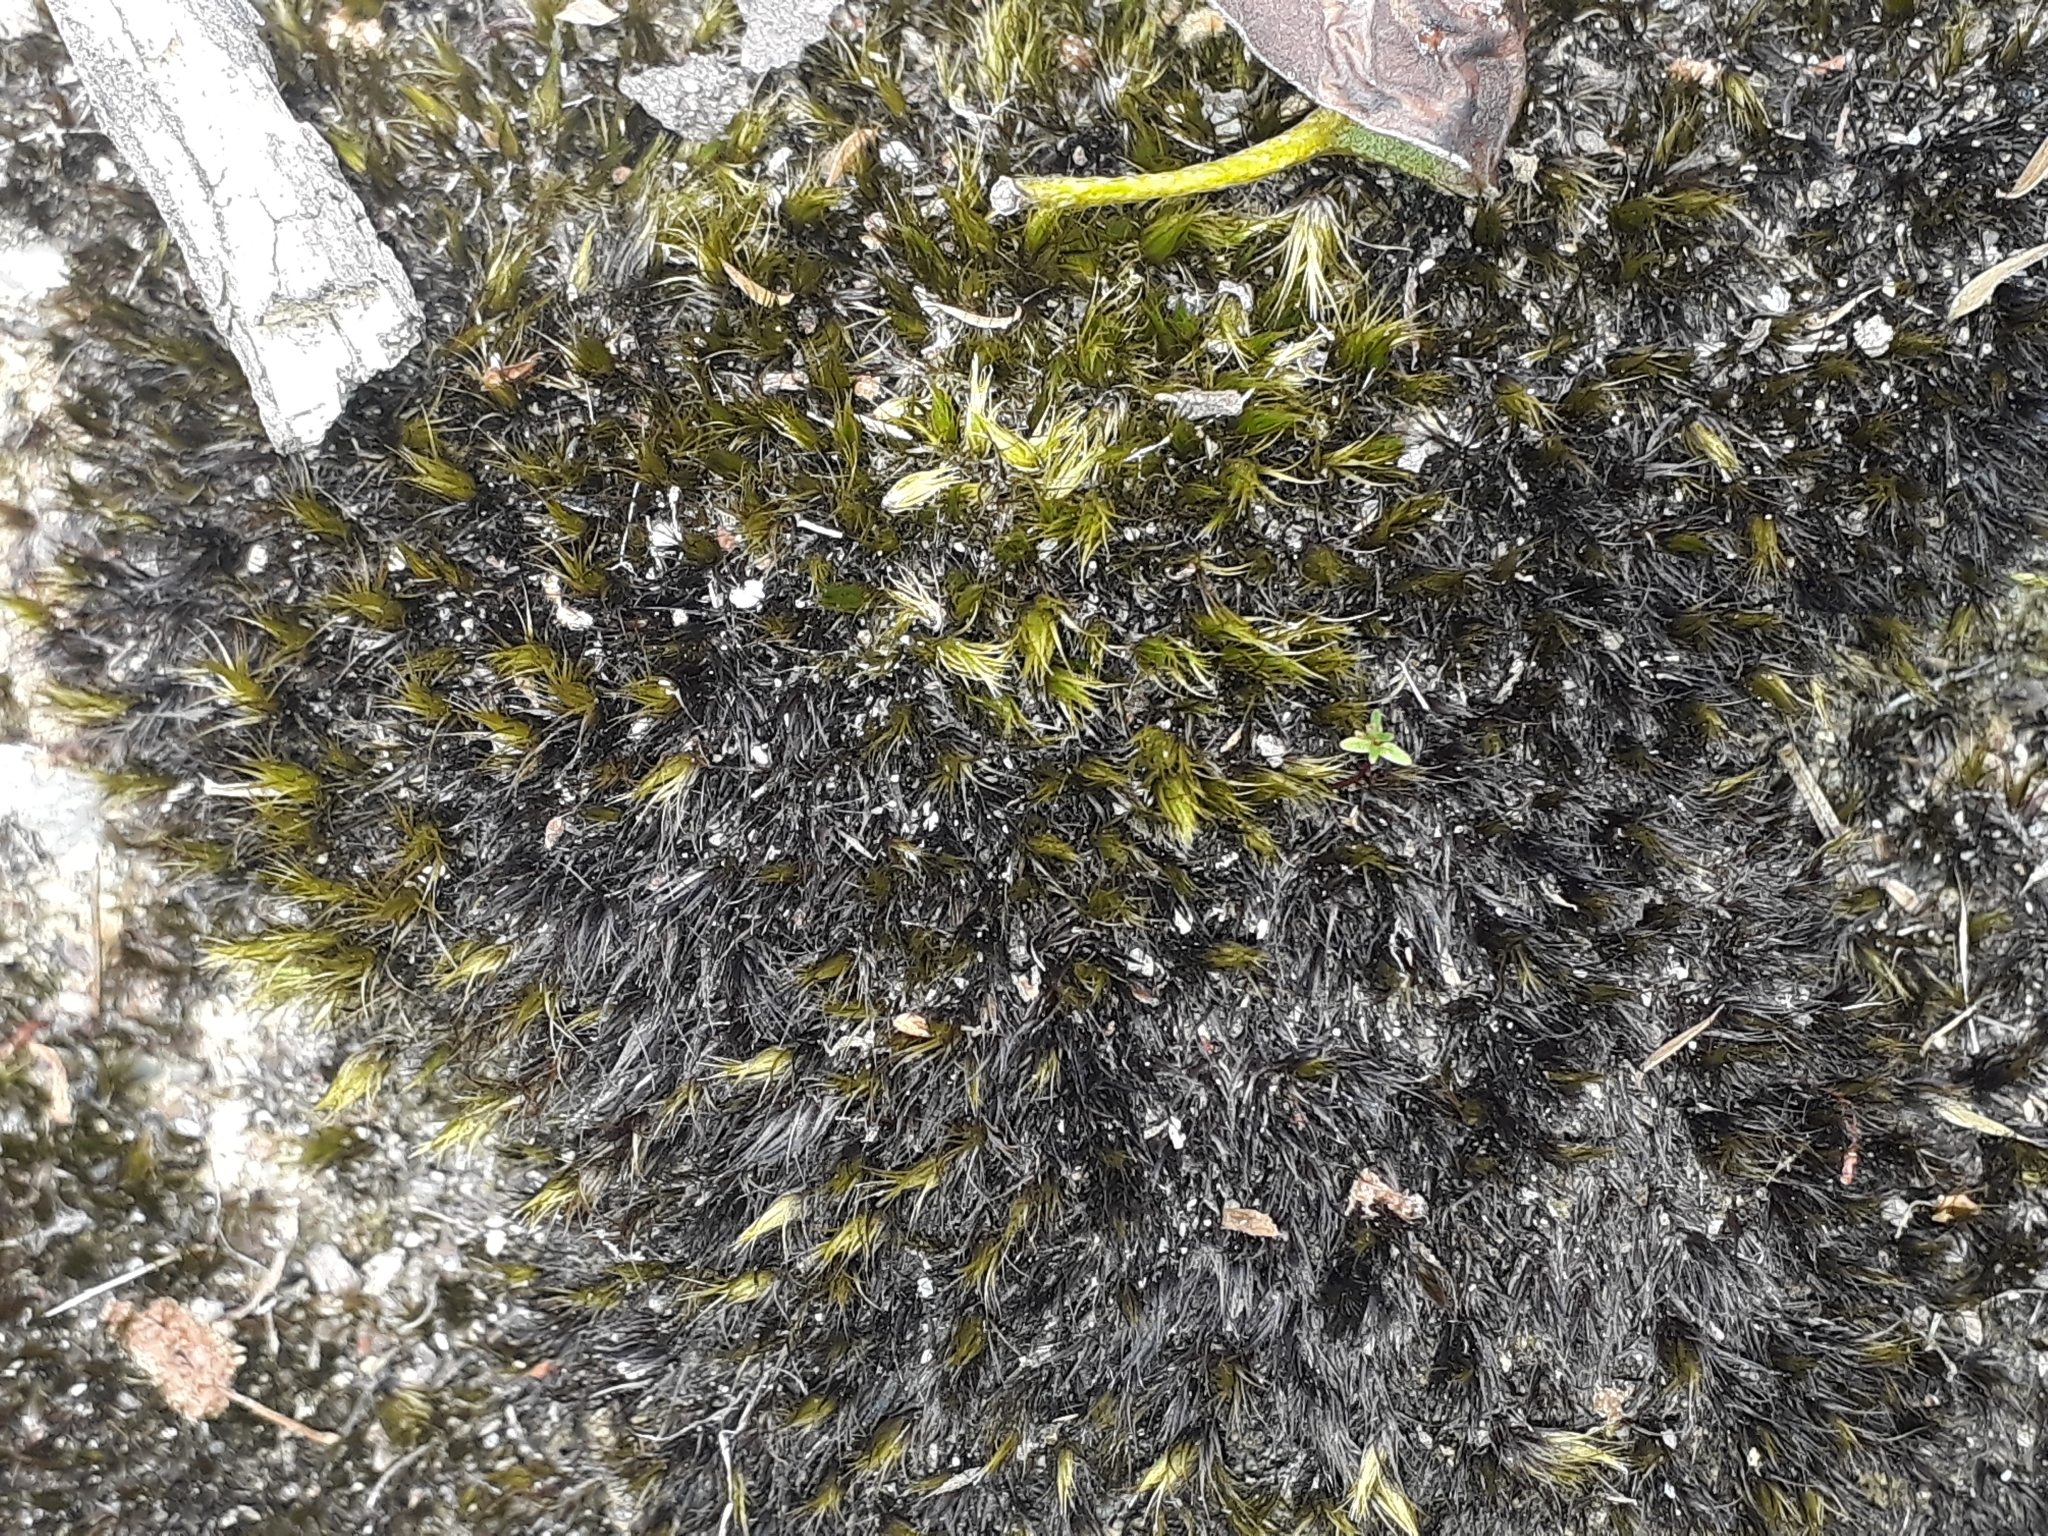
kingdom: Plantae
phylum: Bryophyta
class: Bryopsida
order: Dicranales
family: Leucobryaceae
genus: Campylopus
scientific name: Campylopus clavatus
